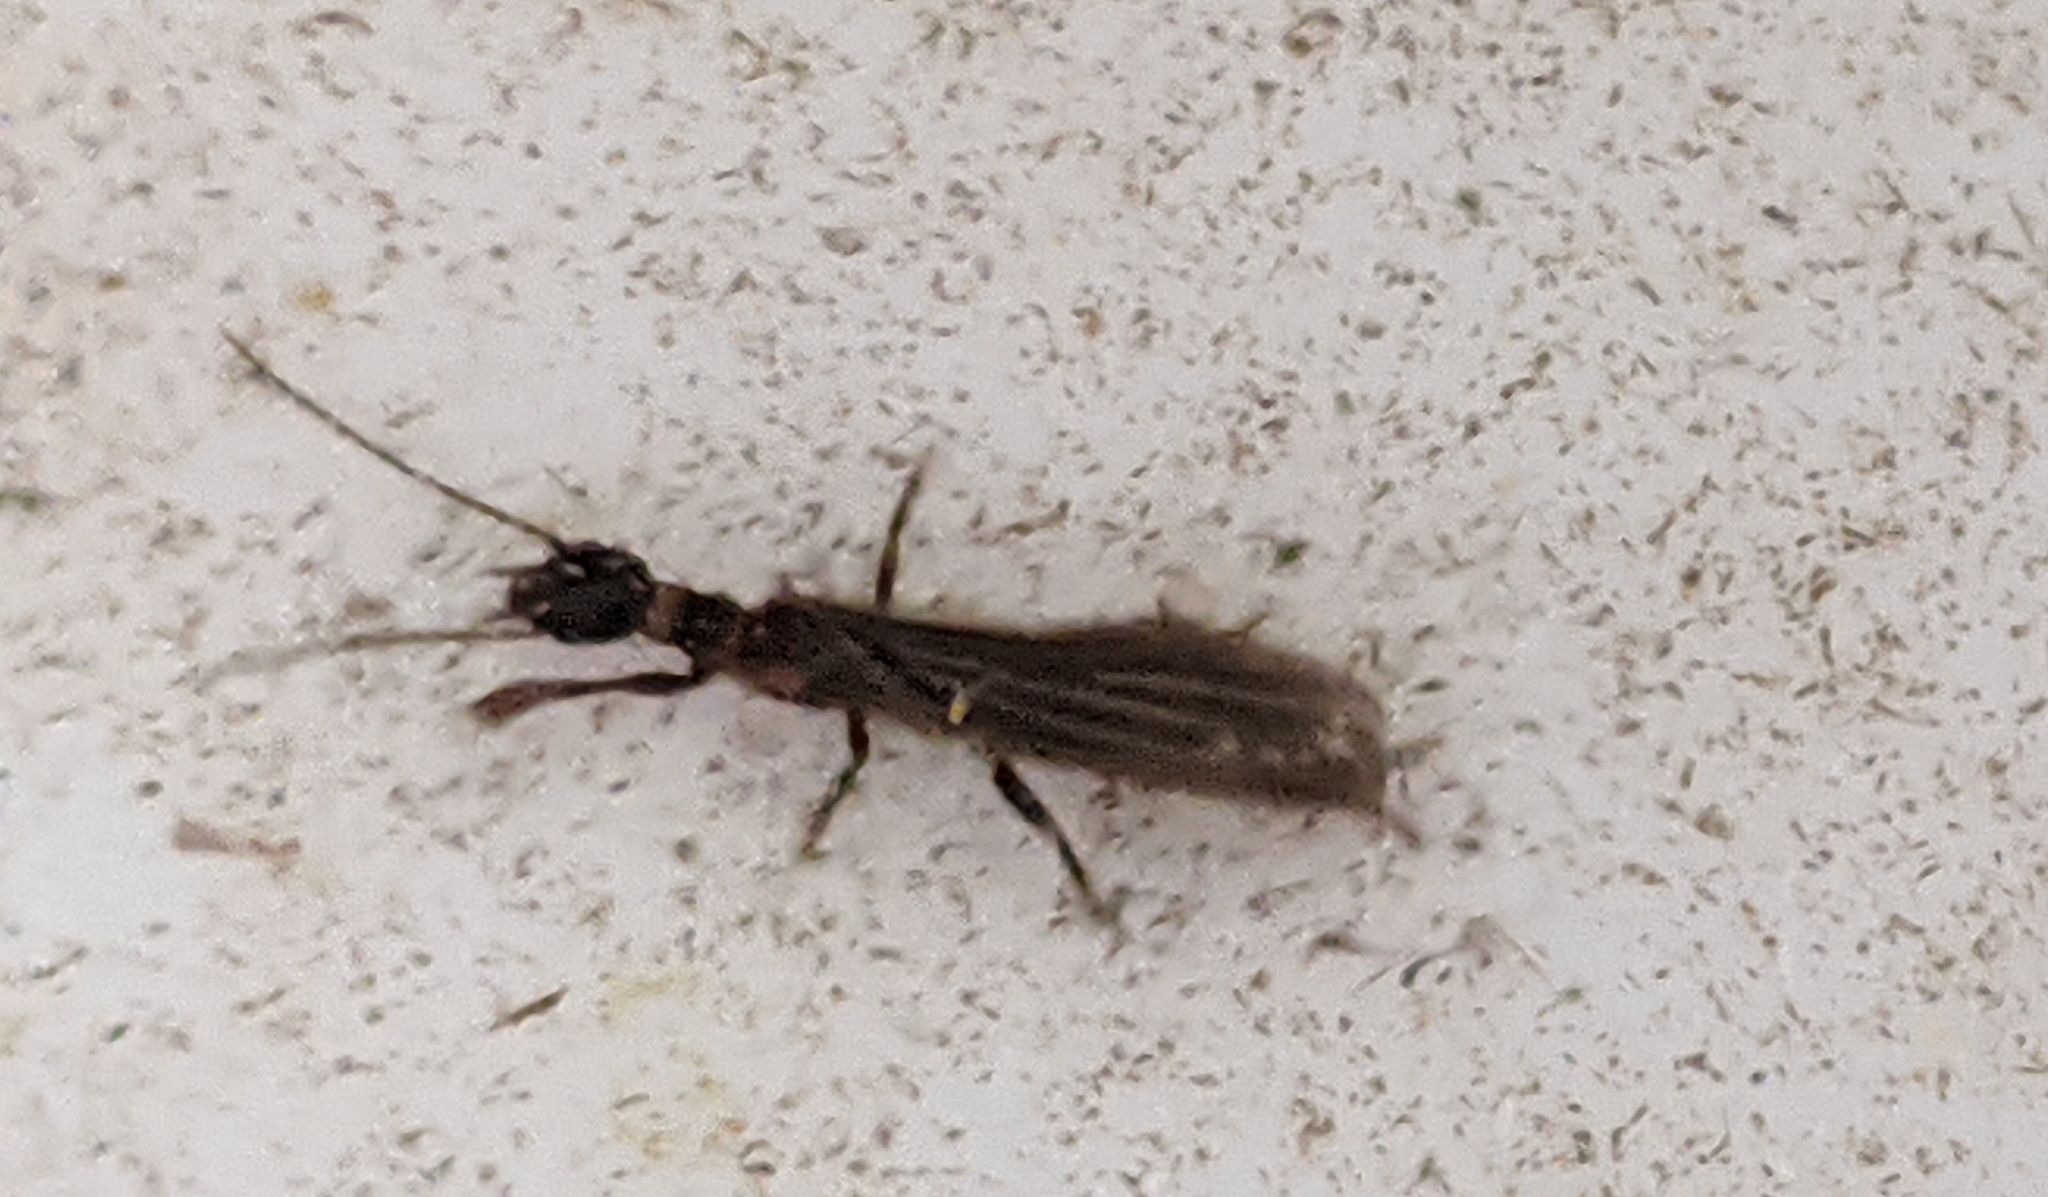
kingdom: Animalia
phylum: Arthropoda
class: Insecta
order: Embioptera
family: Oligotomidae
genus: Oligotoma
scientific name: Oligotoma nigra
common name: Black webspinner
